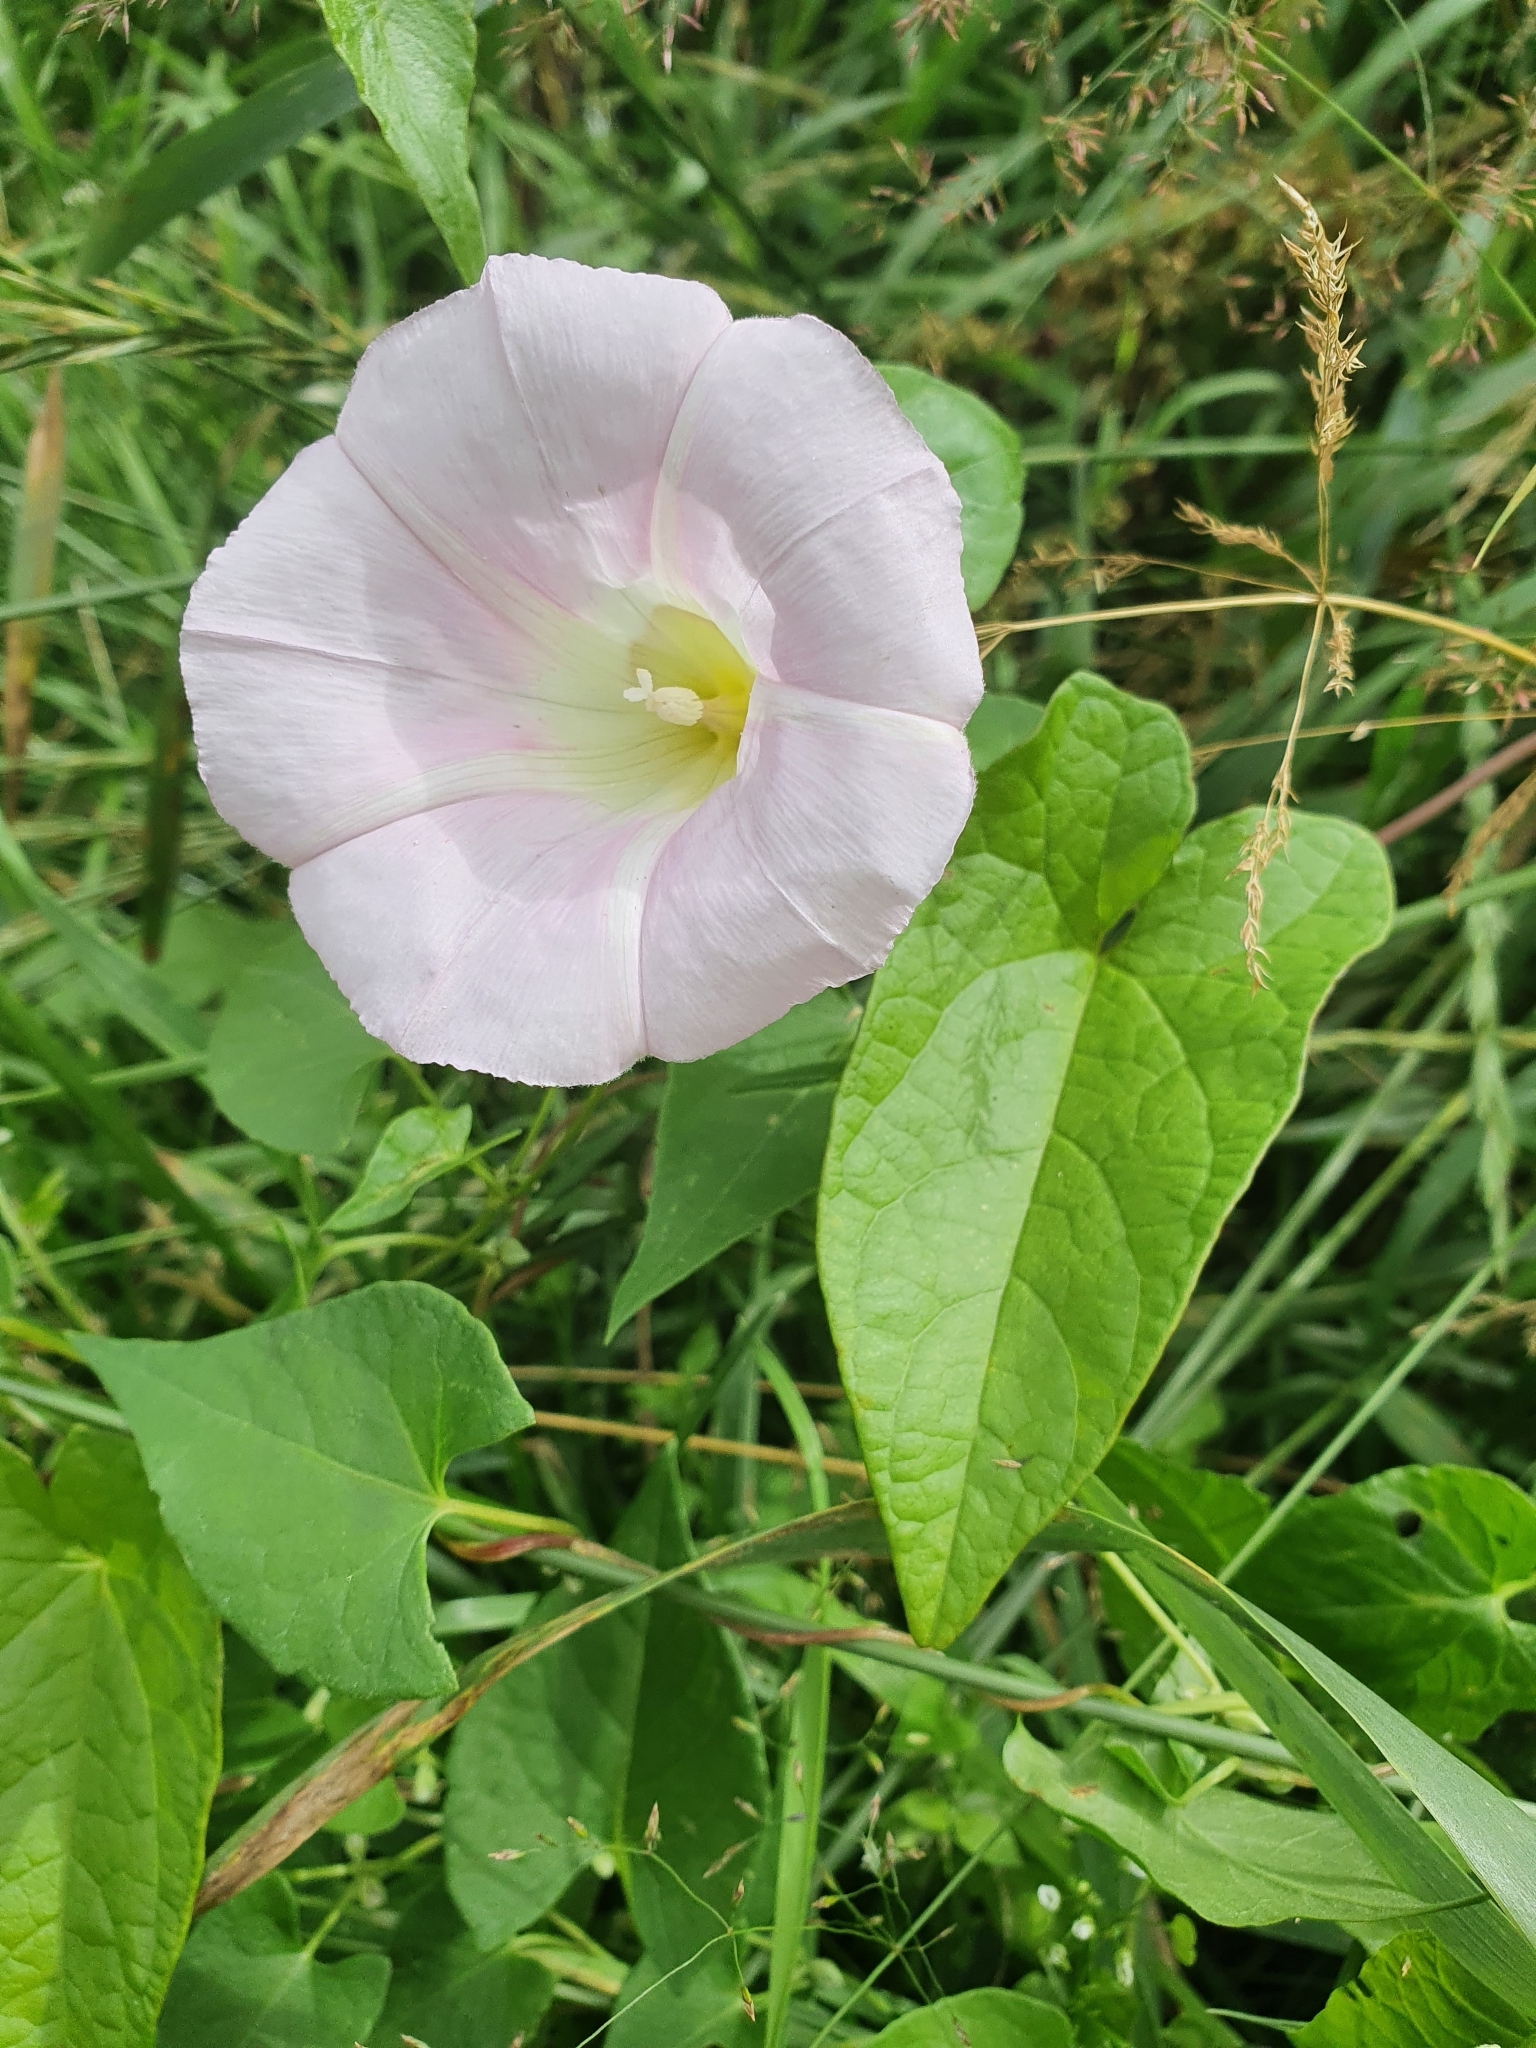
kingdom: Plantae
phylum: Tracheophyta
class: Magnoliopsida
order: Solanales
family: Convolvulaceae
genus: Calystegia
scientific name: Calystegia sepium
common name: Hedge bindweed
